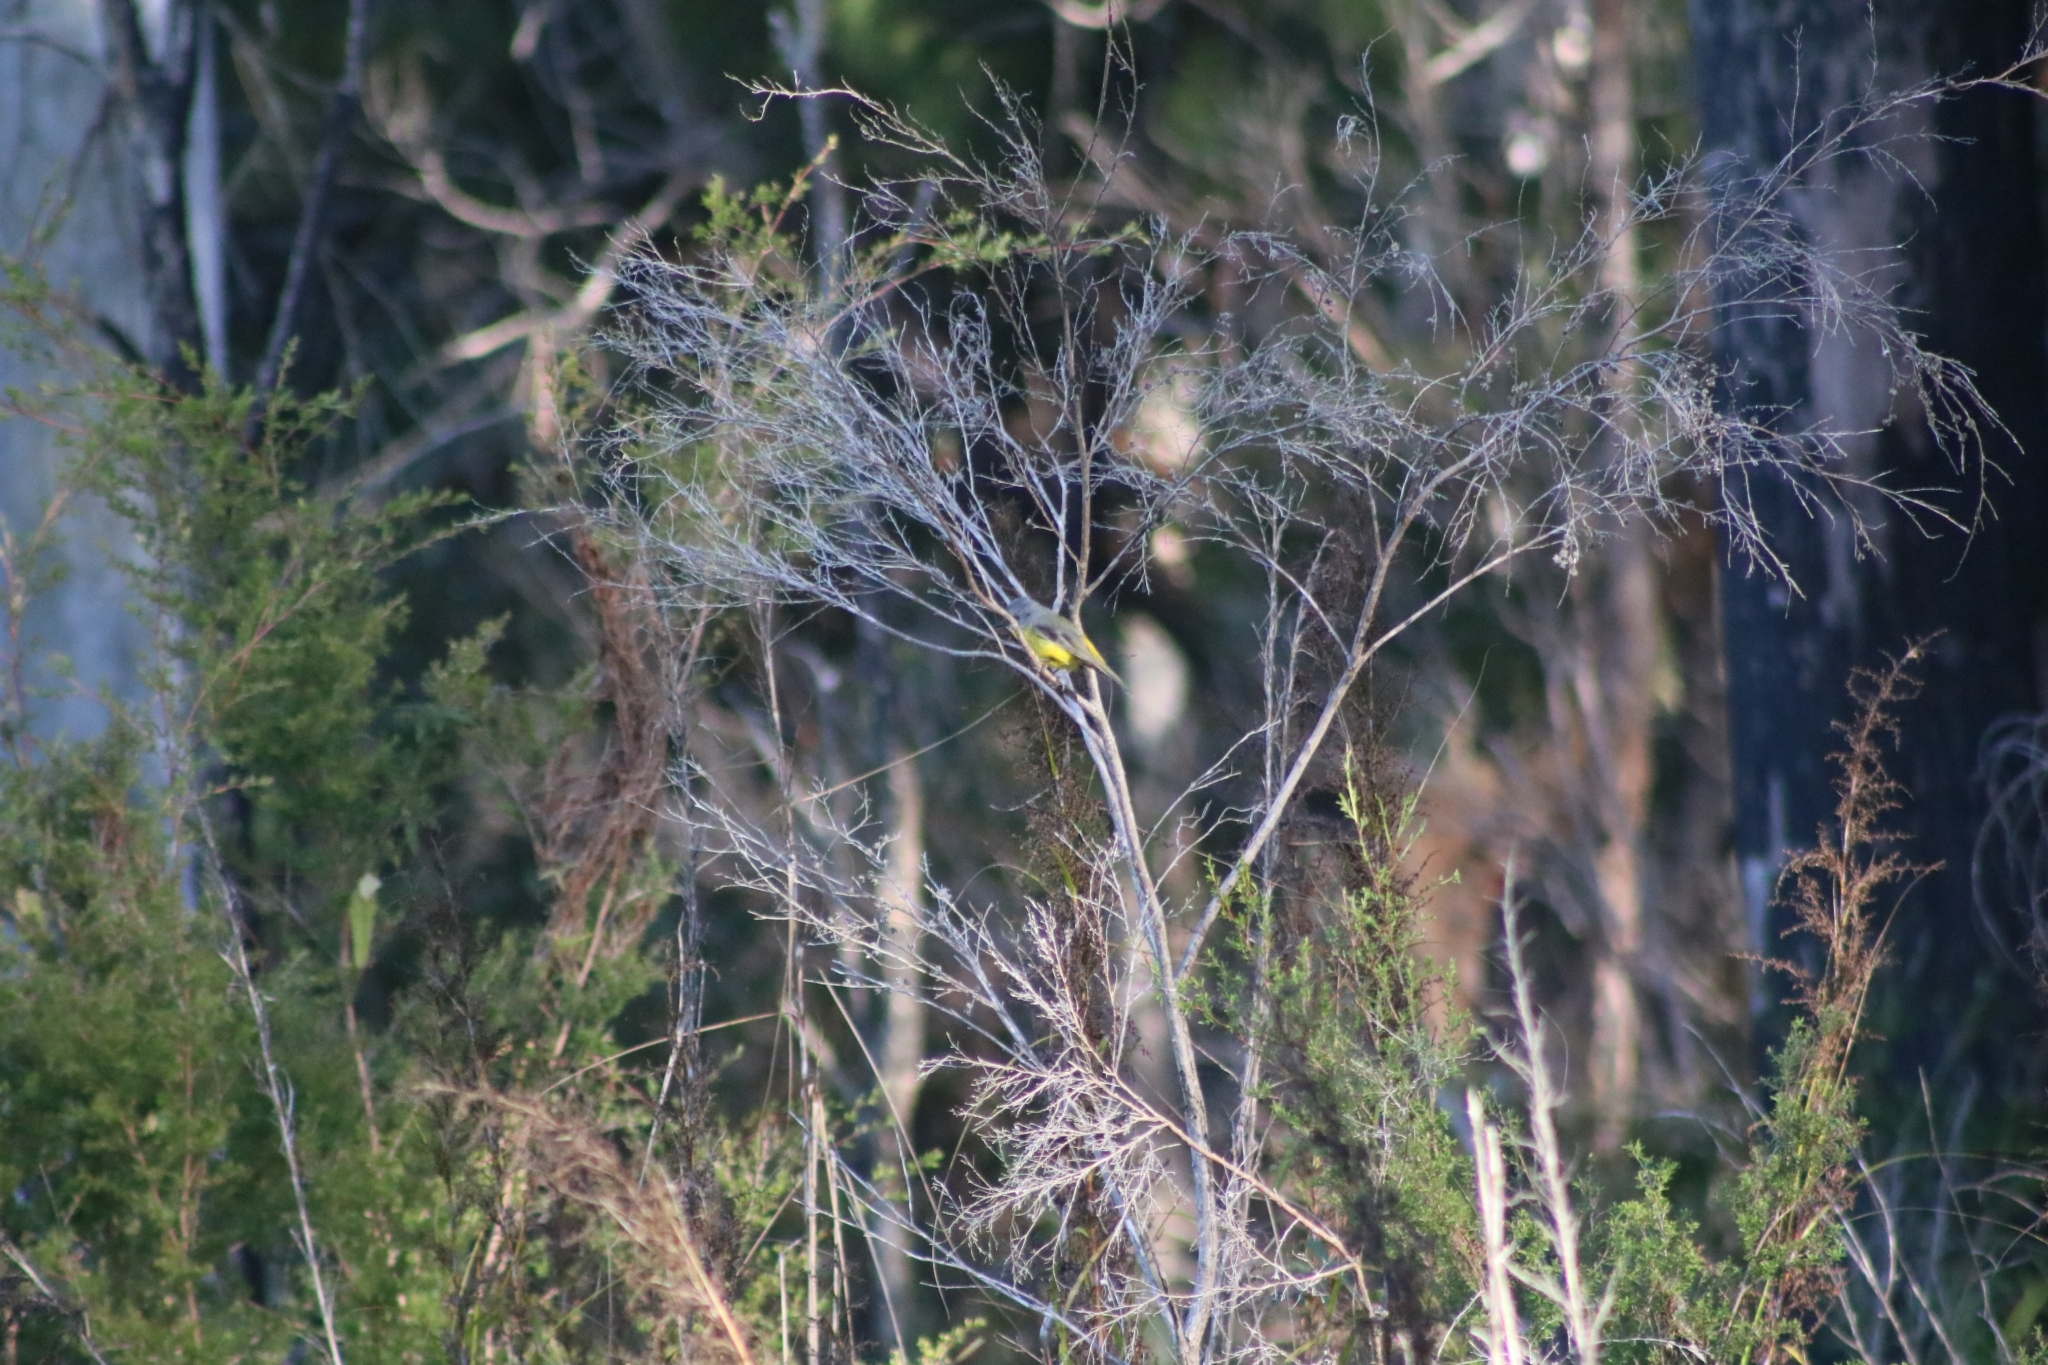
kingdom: Animalia
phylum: Chordata
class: Aves
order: Passeriformes
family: Petroicidae
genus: Eopsaltria
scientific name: Eopsaltria australis
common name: Eastern yellow robin
